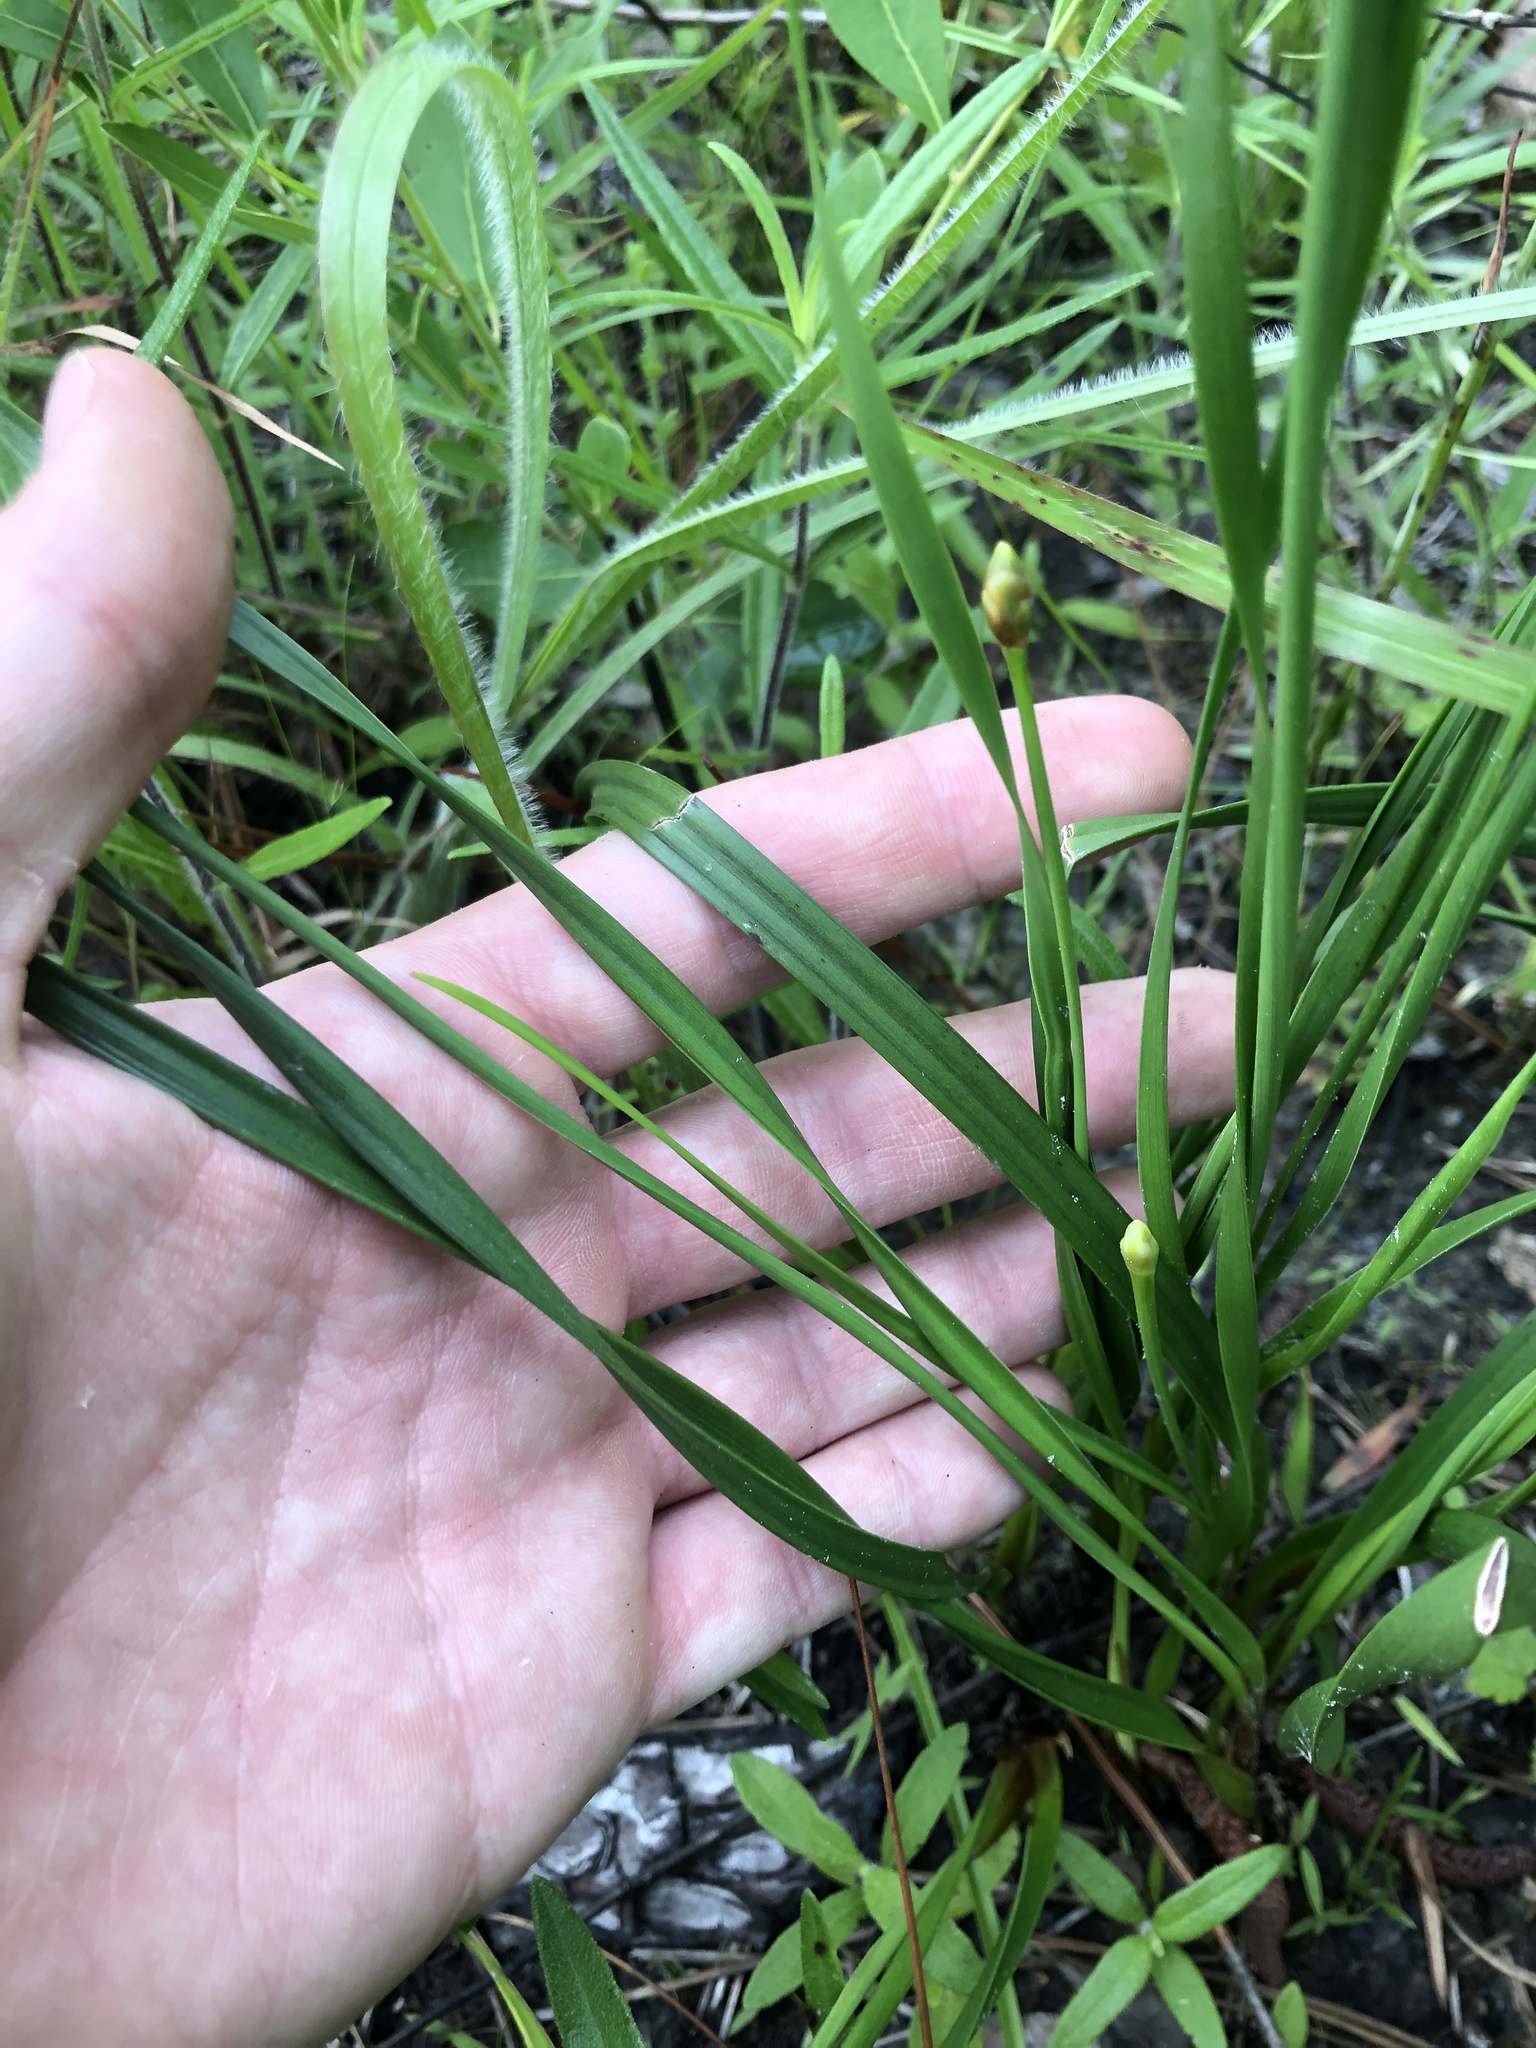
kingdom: Plantae
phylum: Tracheophyta
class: Liliopsida
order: Poales
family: Xyridaceae
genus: Xyris
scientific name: Xyris caroliniana
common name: Carolina yellow-eyed-grass
